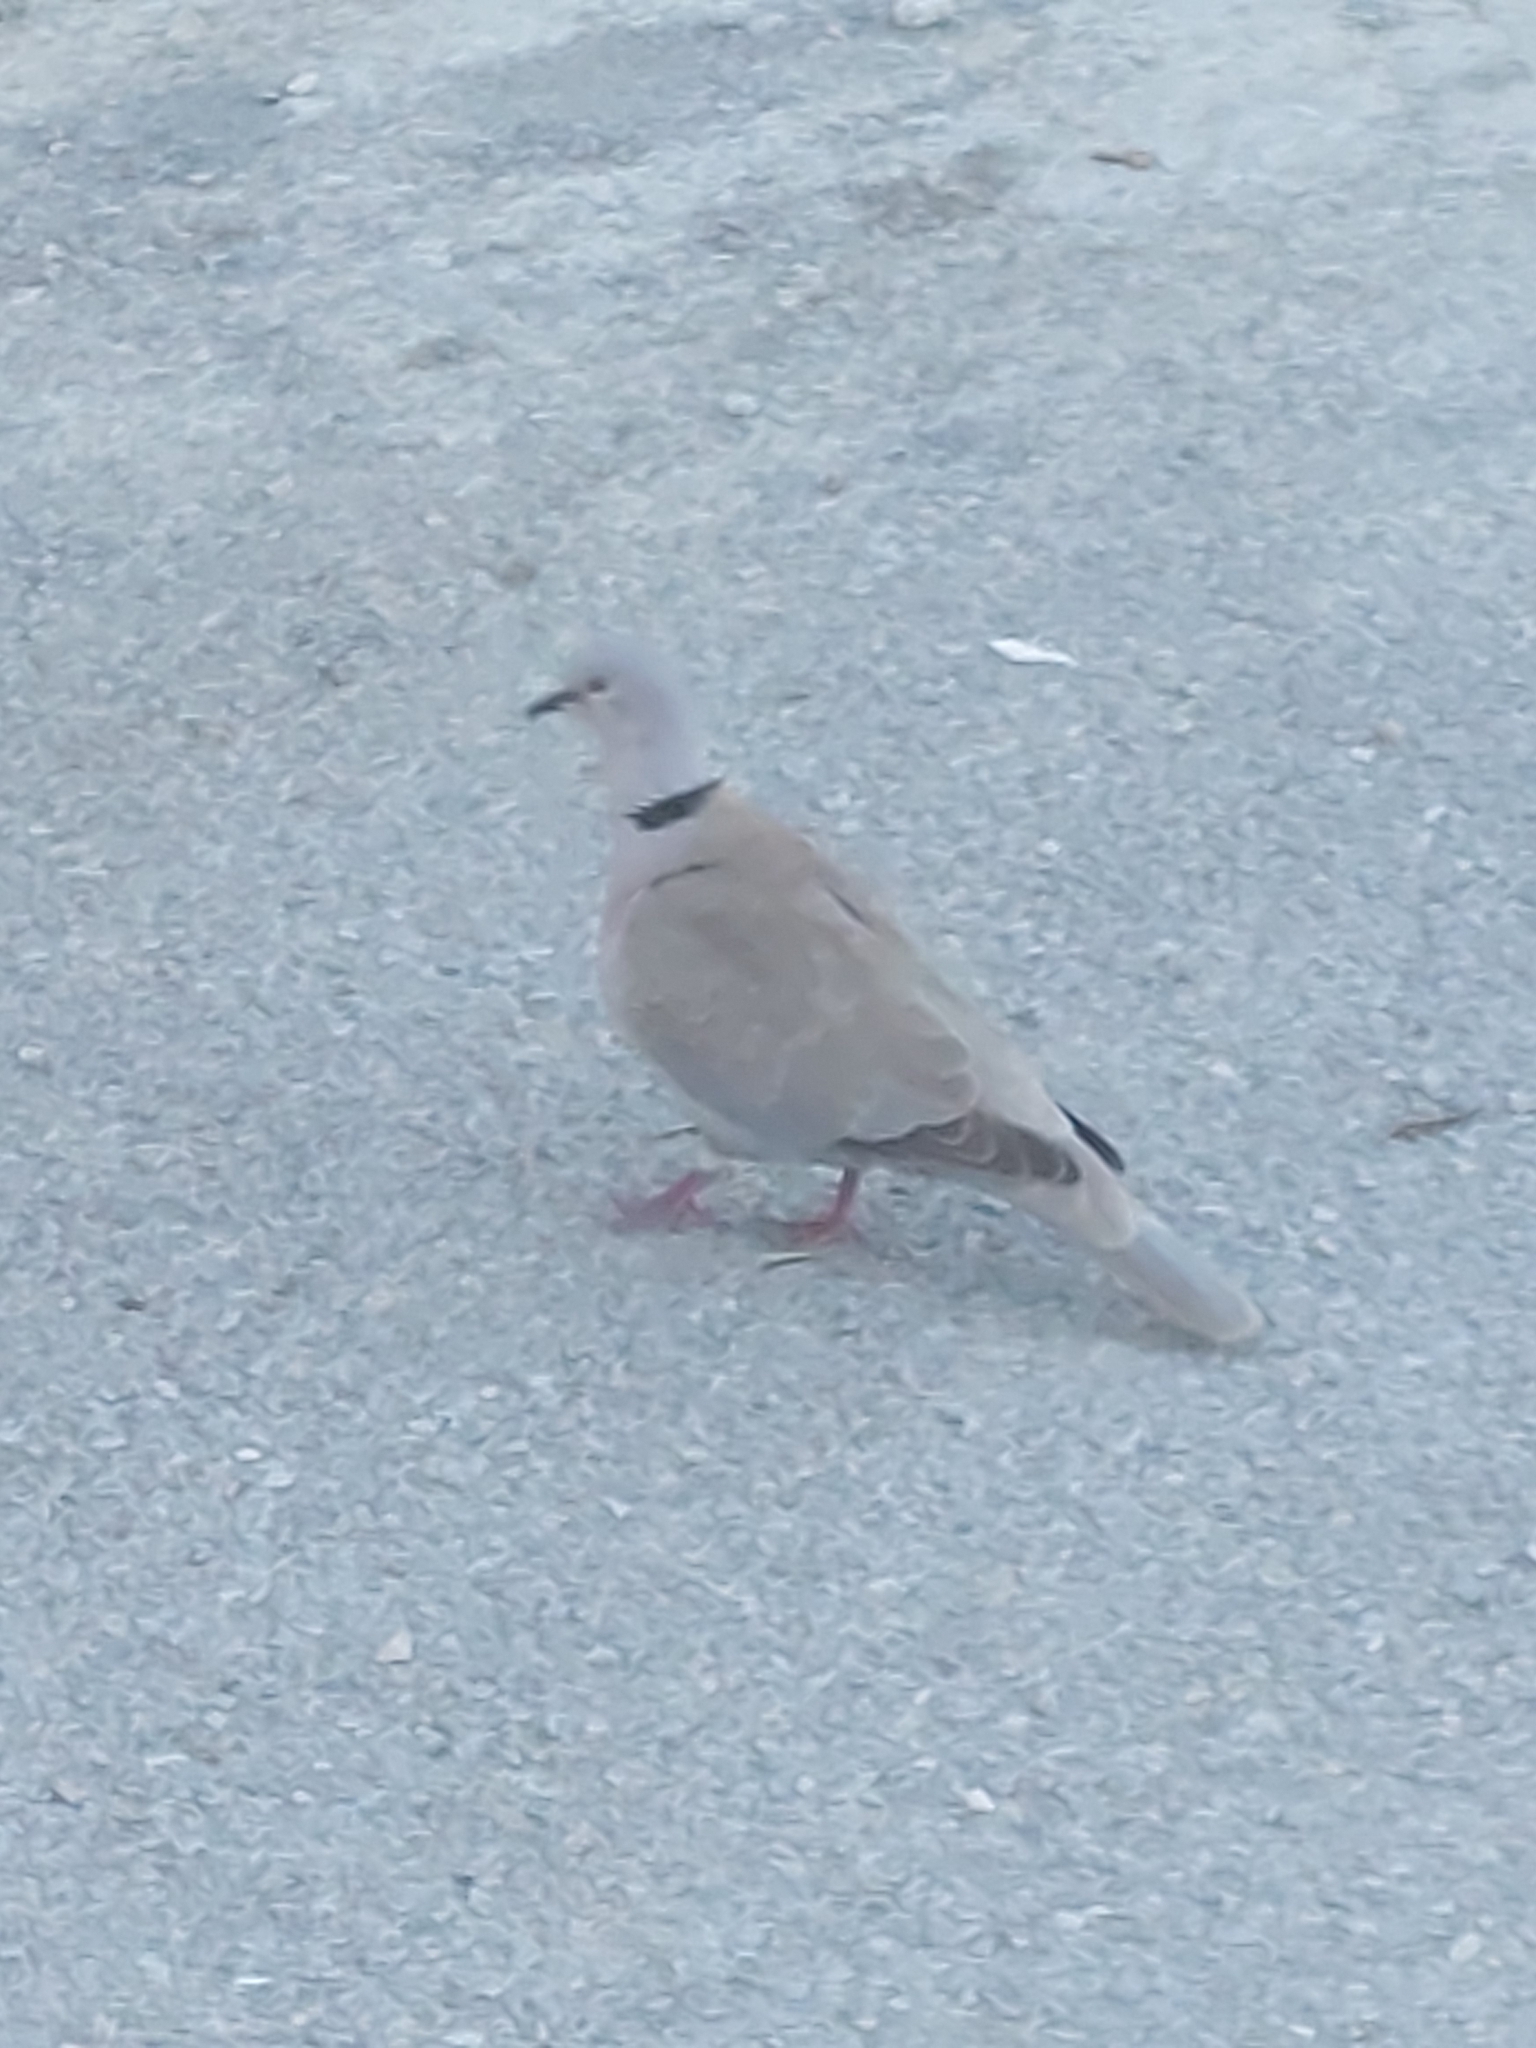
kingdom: Animalia
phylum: Chordata
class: Aves
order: Columbiformes
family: Columbidae
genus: Streptopelia
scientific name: Streptopelia decaocto
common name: Eurasian collared dove
